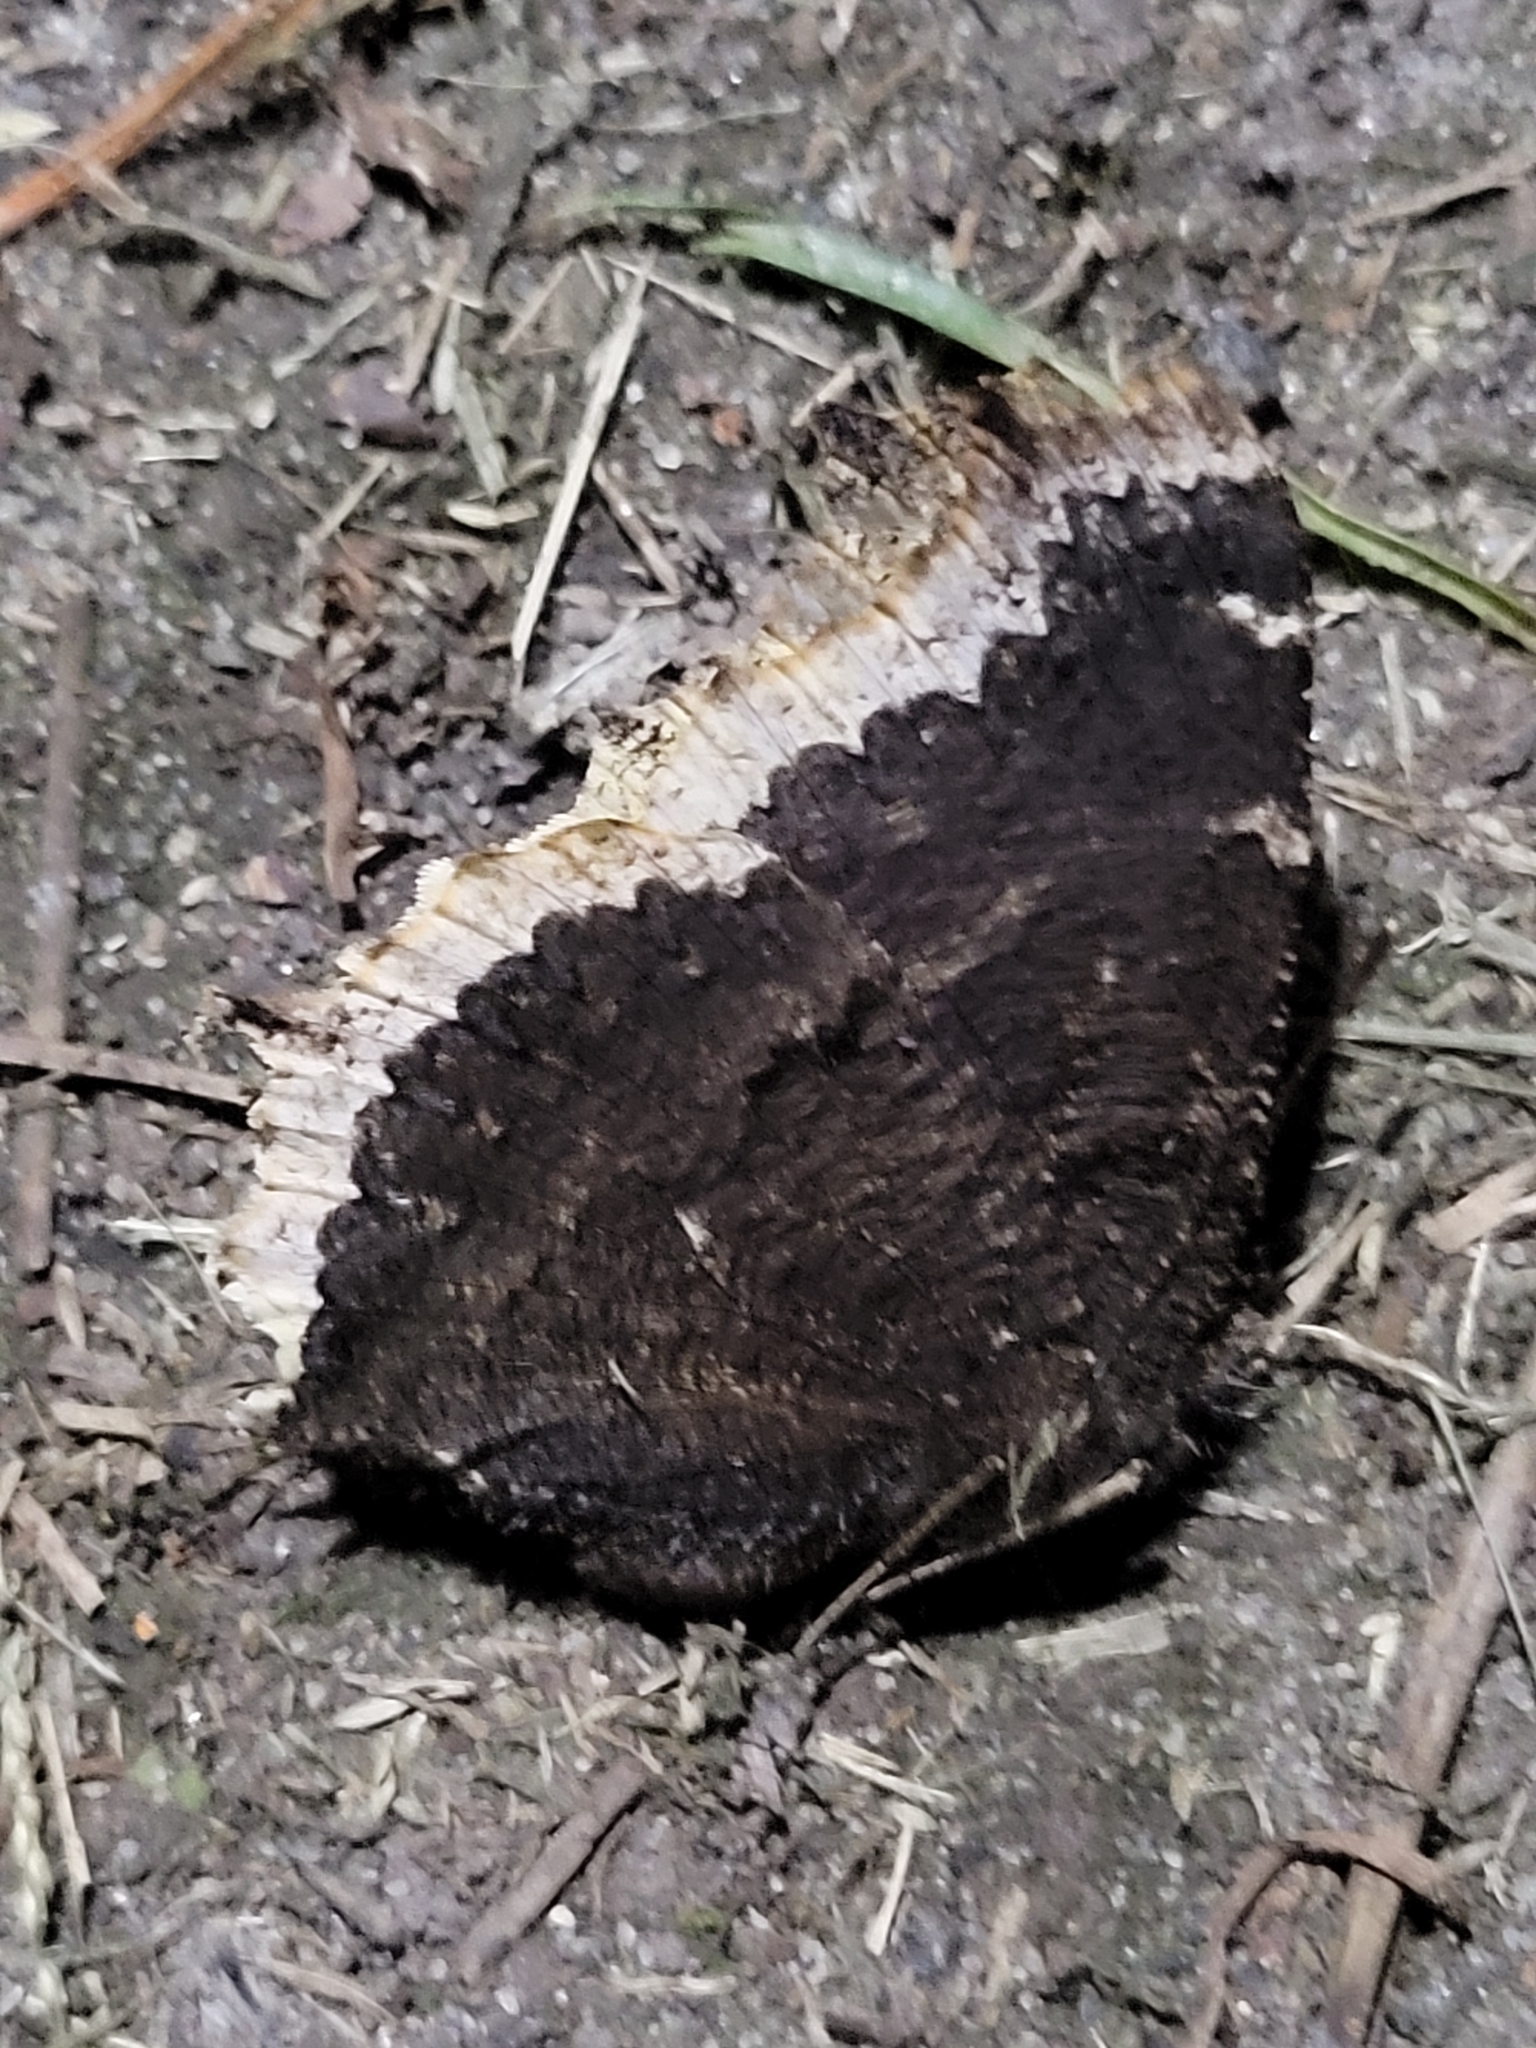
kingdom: Animalia
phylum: Arthropoda
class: Insecta
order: Lepidoptera
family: Nymphalidae
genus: Nymphalis
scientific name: Nymphalis antiopa
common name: Camberwell beauty
